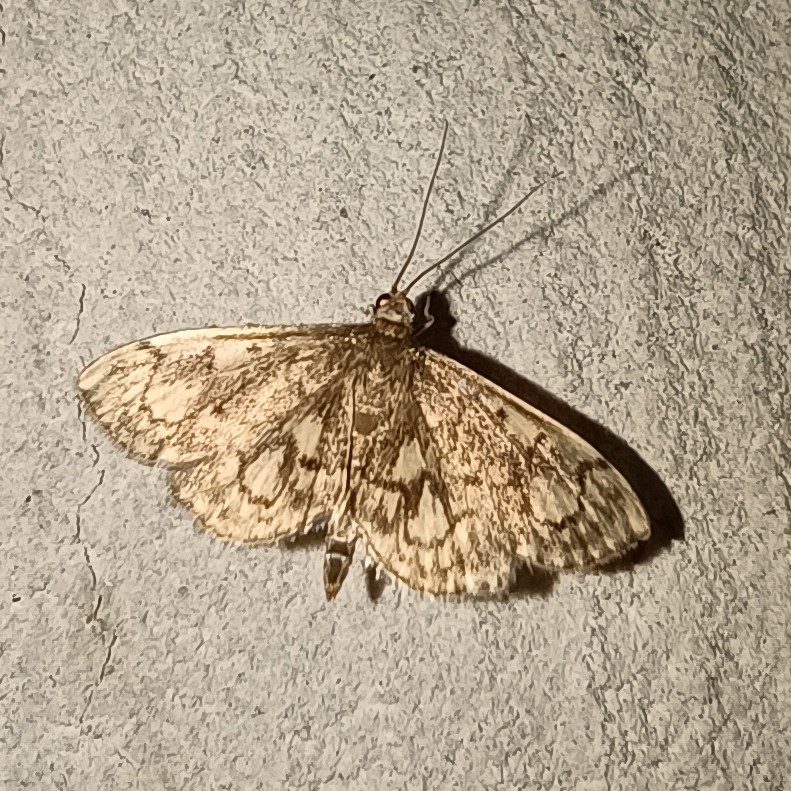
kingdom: Animalia
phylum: Arthropoda
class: Insecta
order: Lepidoptera
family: Crambidae
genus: Anania
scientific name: Anania stachydalis
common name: Woundwort pearl
